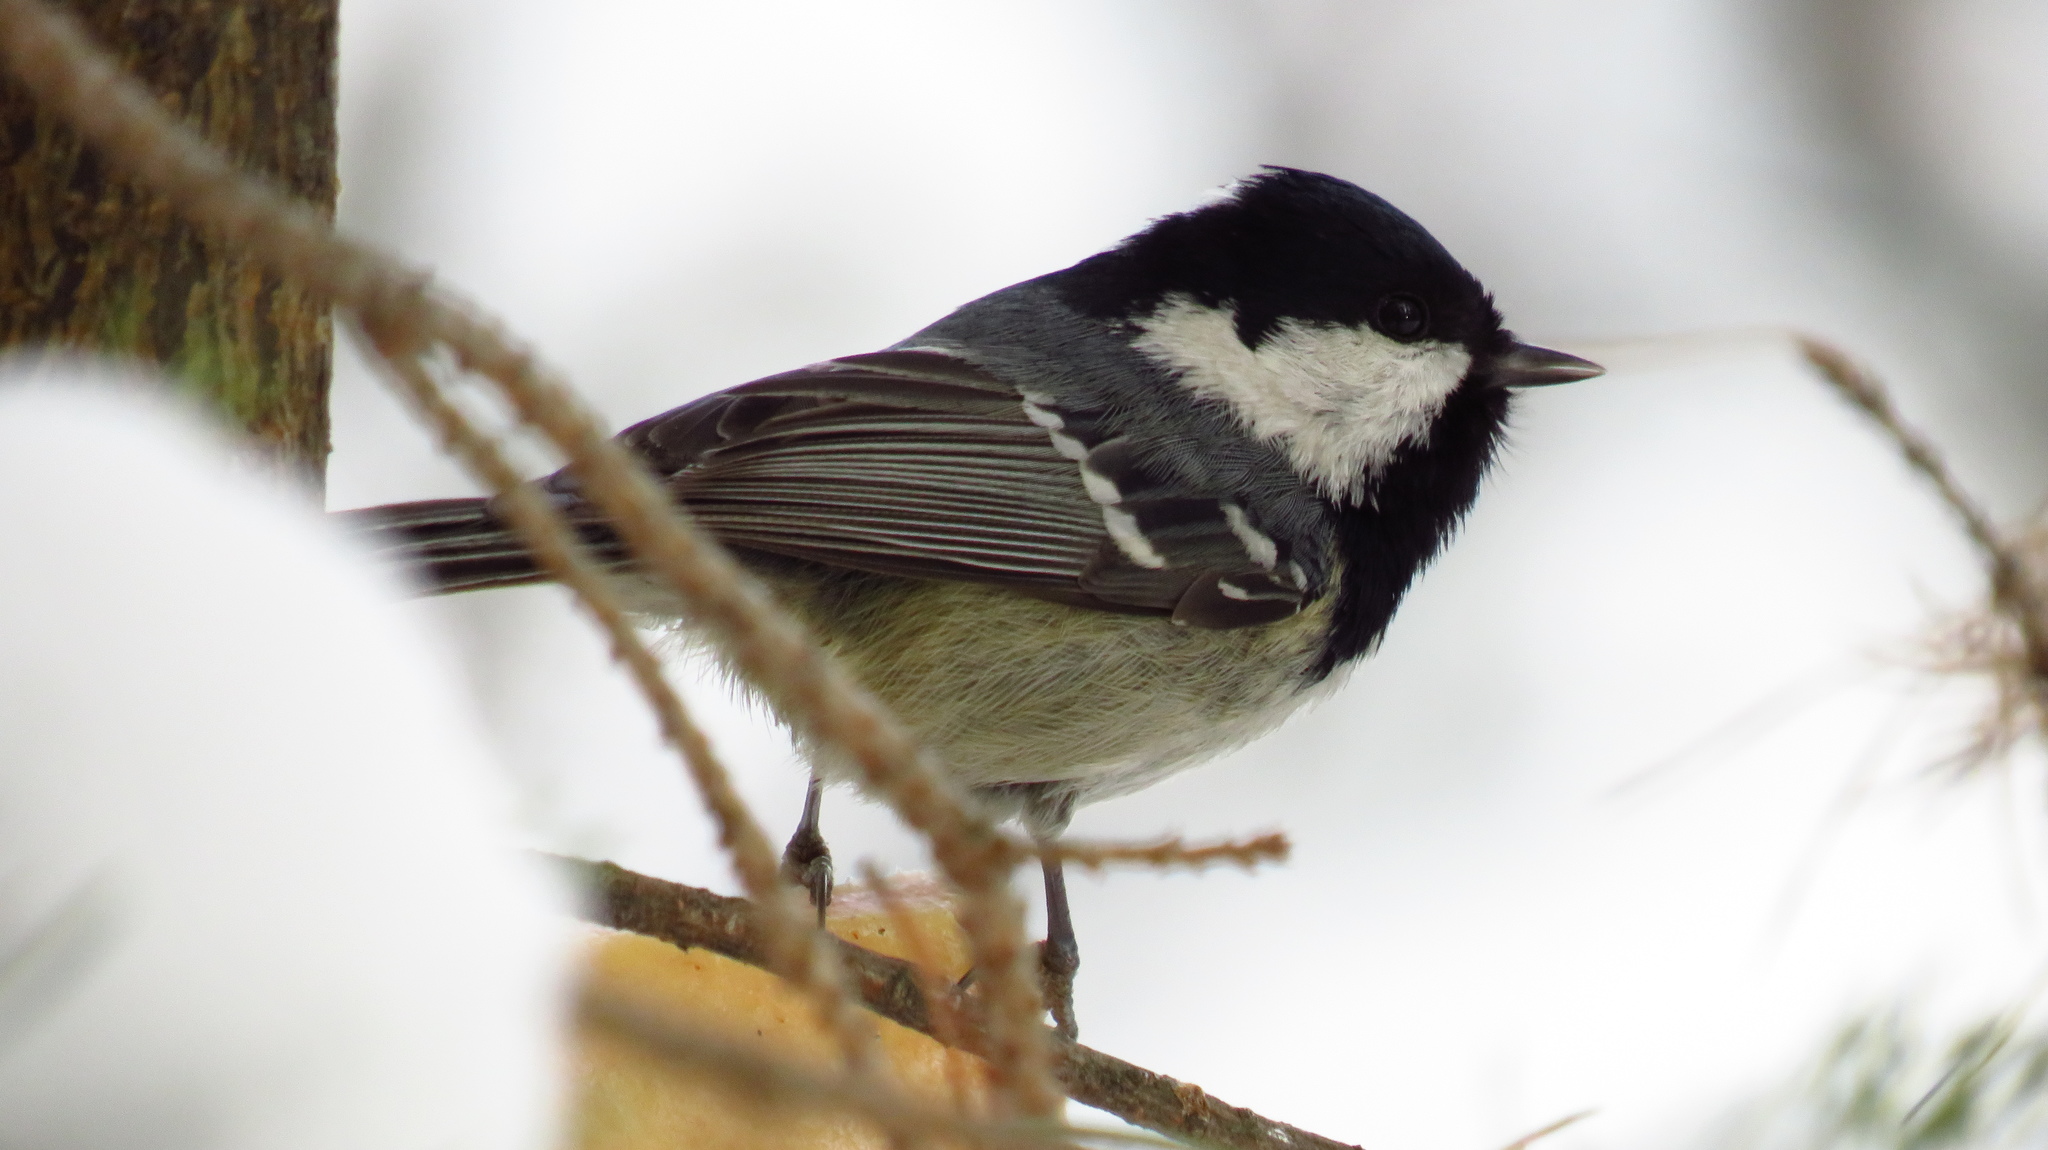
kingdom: Animalia
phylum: Chordata
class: Aves
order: Passeriformes
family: Paridae
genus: Periparus
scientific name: Periparus ater
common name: Coal tit
